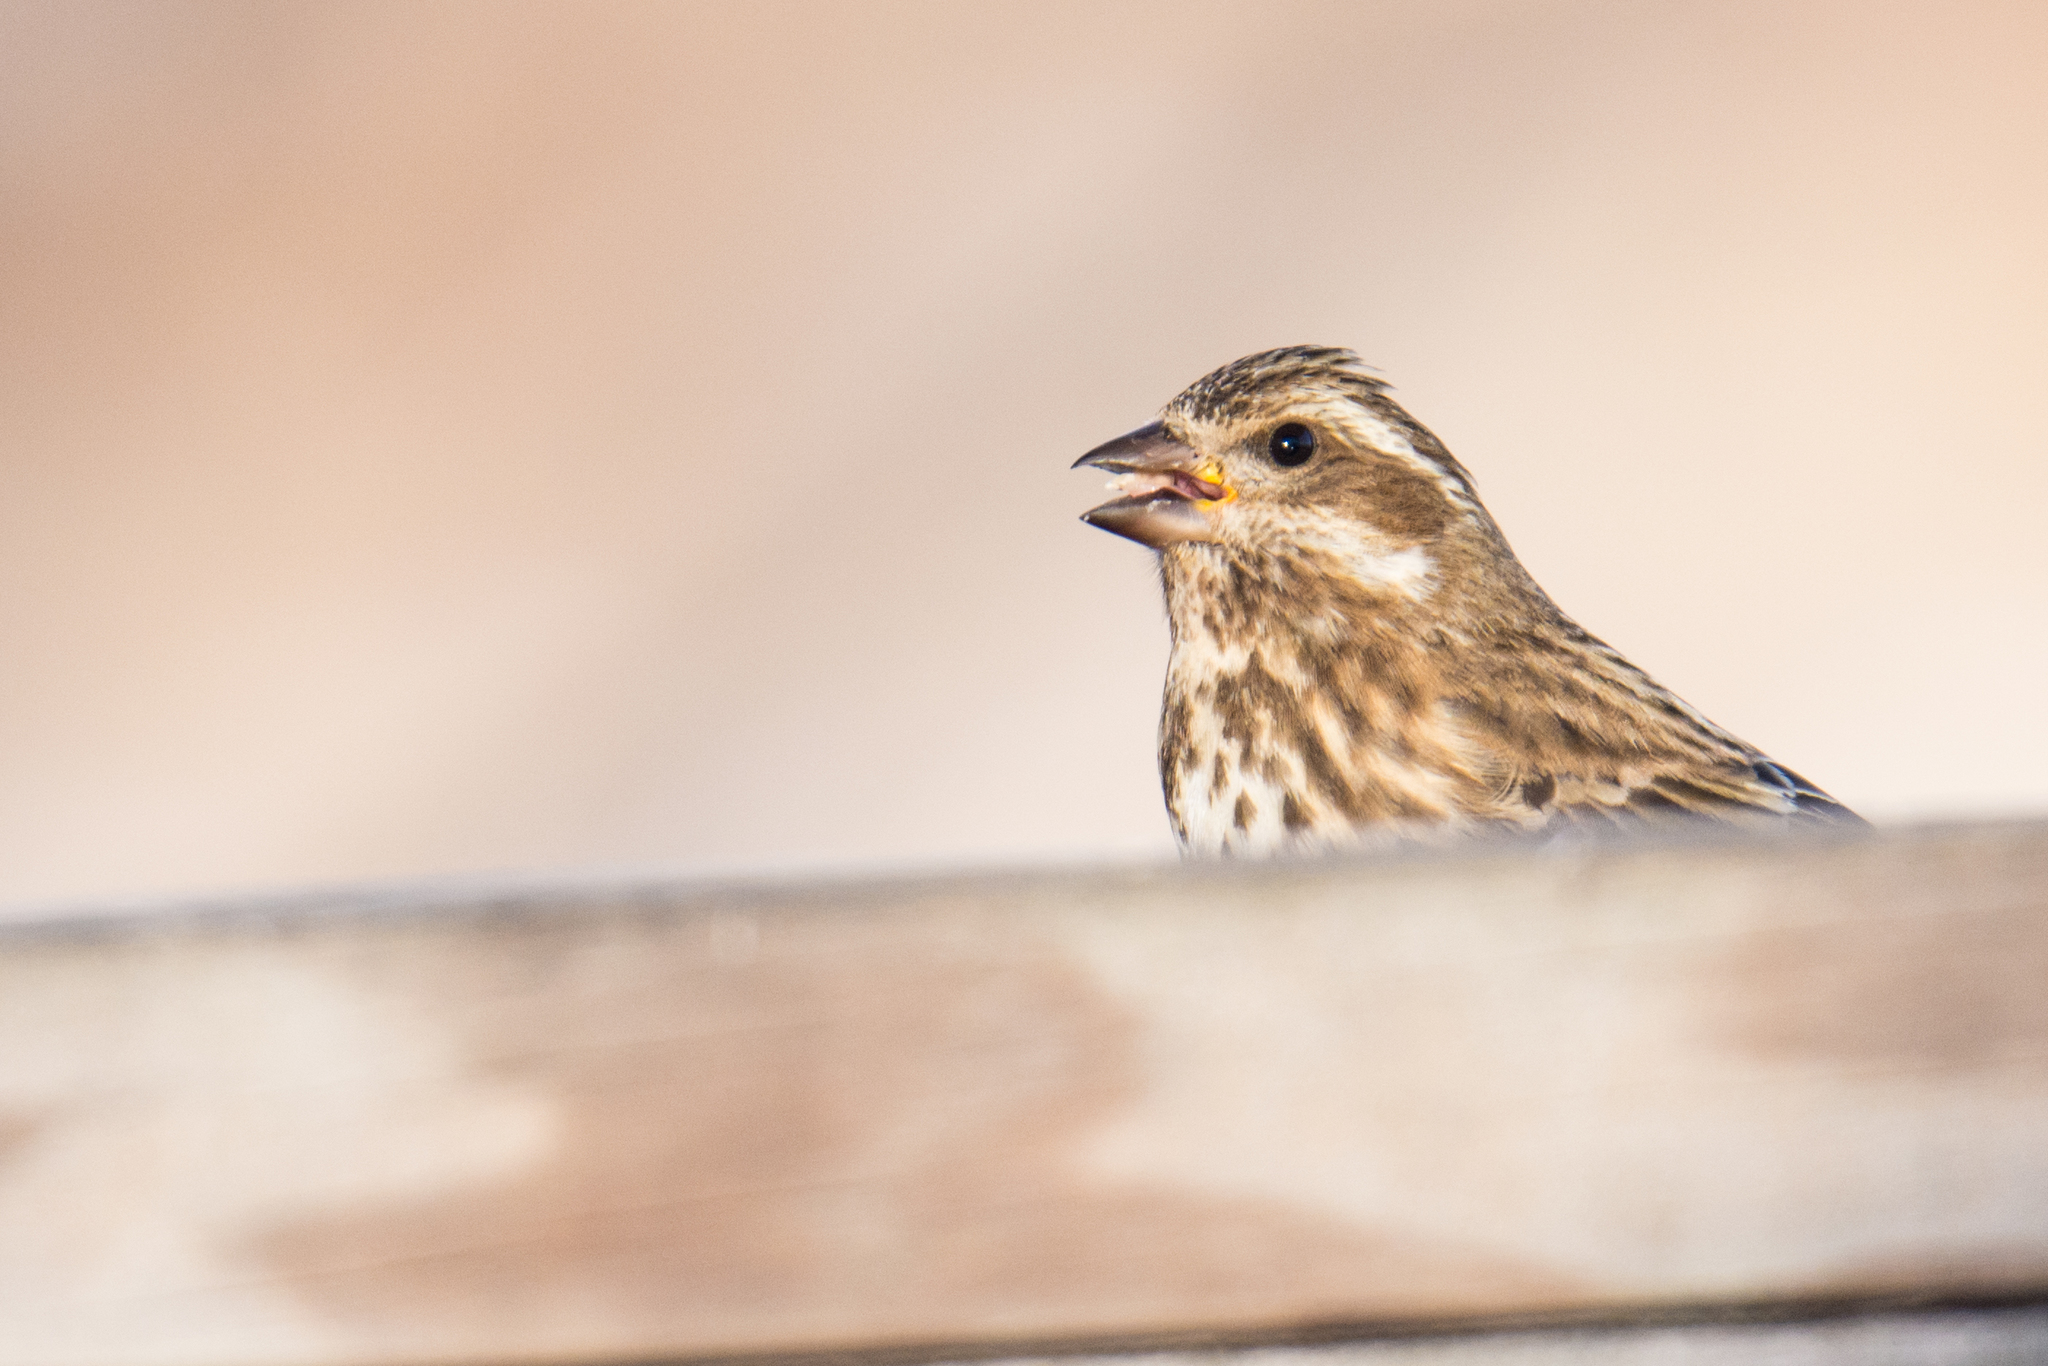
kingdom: Animalia
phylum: Chordata
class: Aves
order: Passeriformes
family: Fringillidae
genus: Haemorhous
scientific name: Haemorhous purpureus
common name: Purple finch
